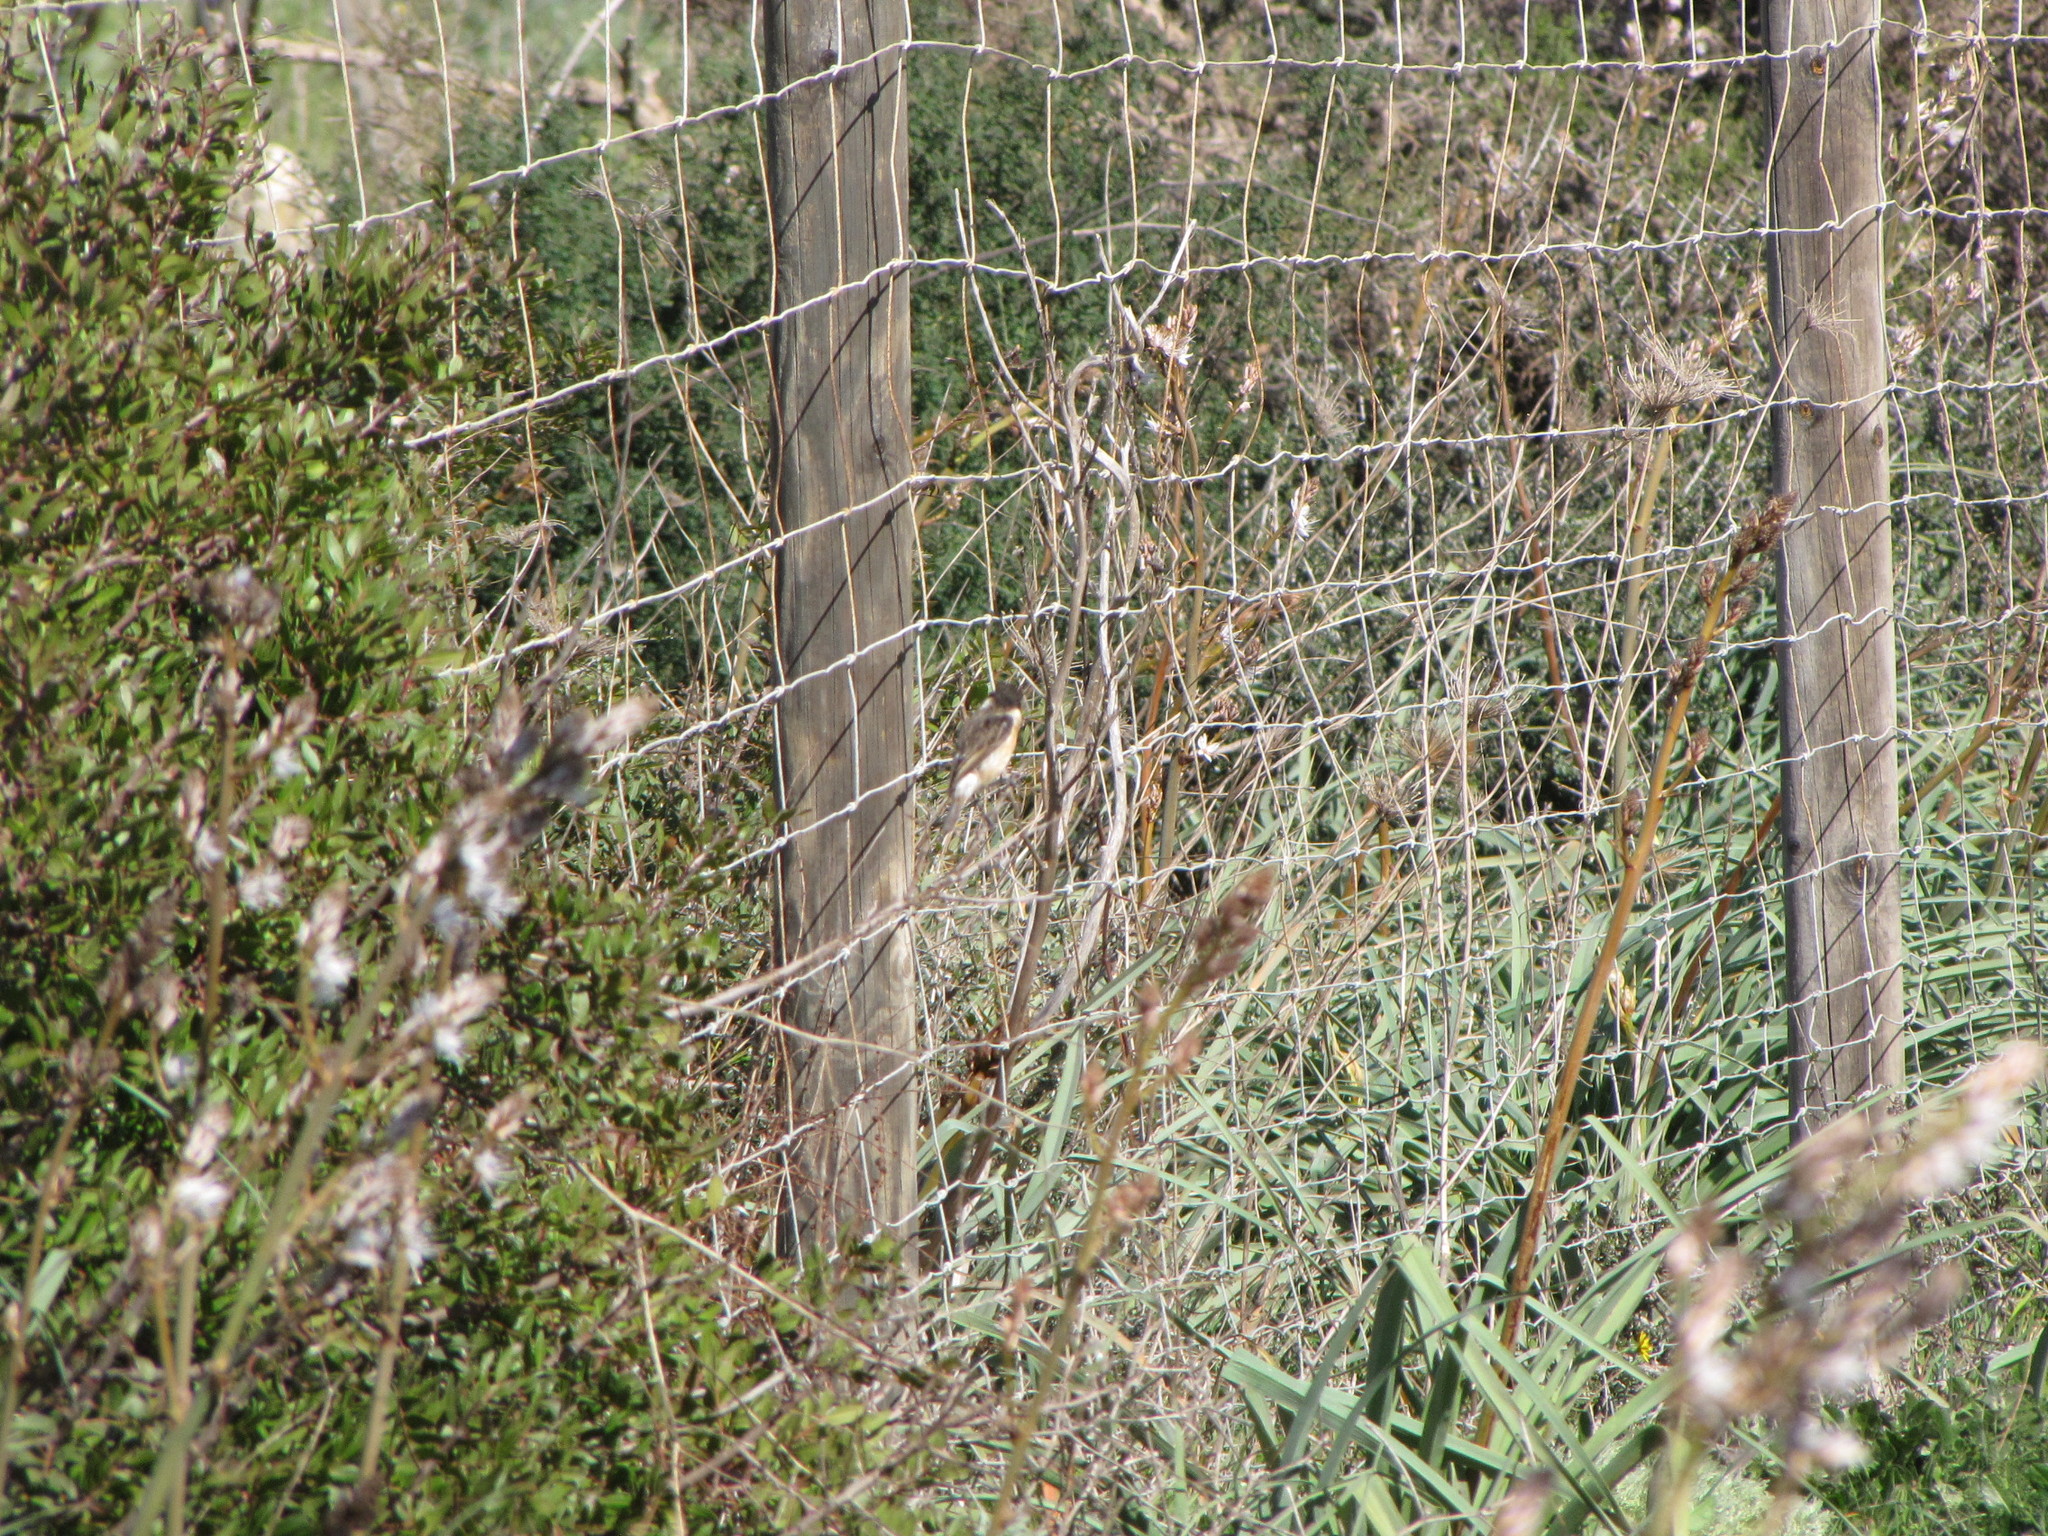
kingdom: Animalia
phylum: Chordata
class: Aves
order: Passeriformes
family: Muscicapidae
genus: Saxicola
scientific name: Saxicola rubicola
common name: European stonechat
